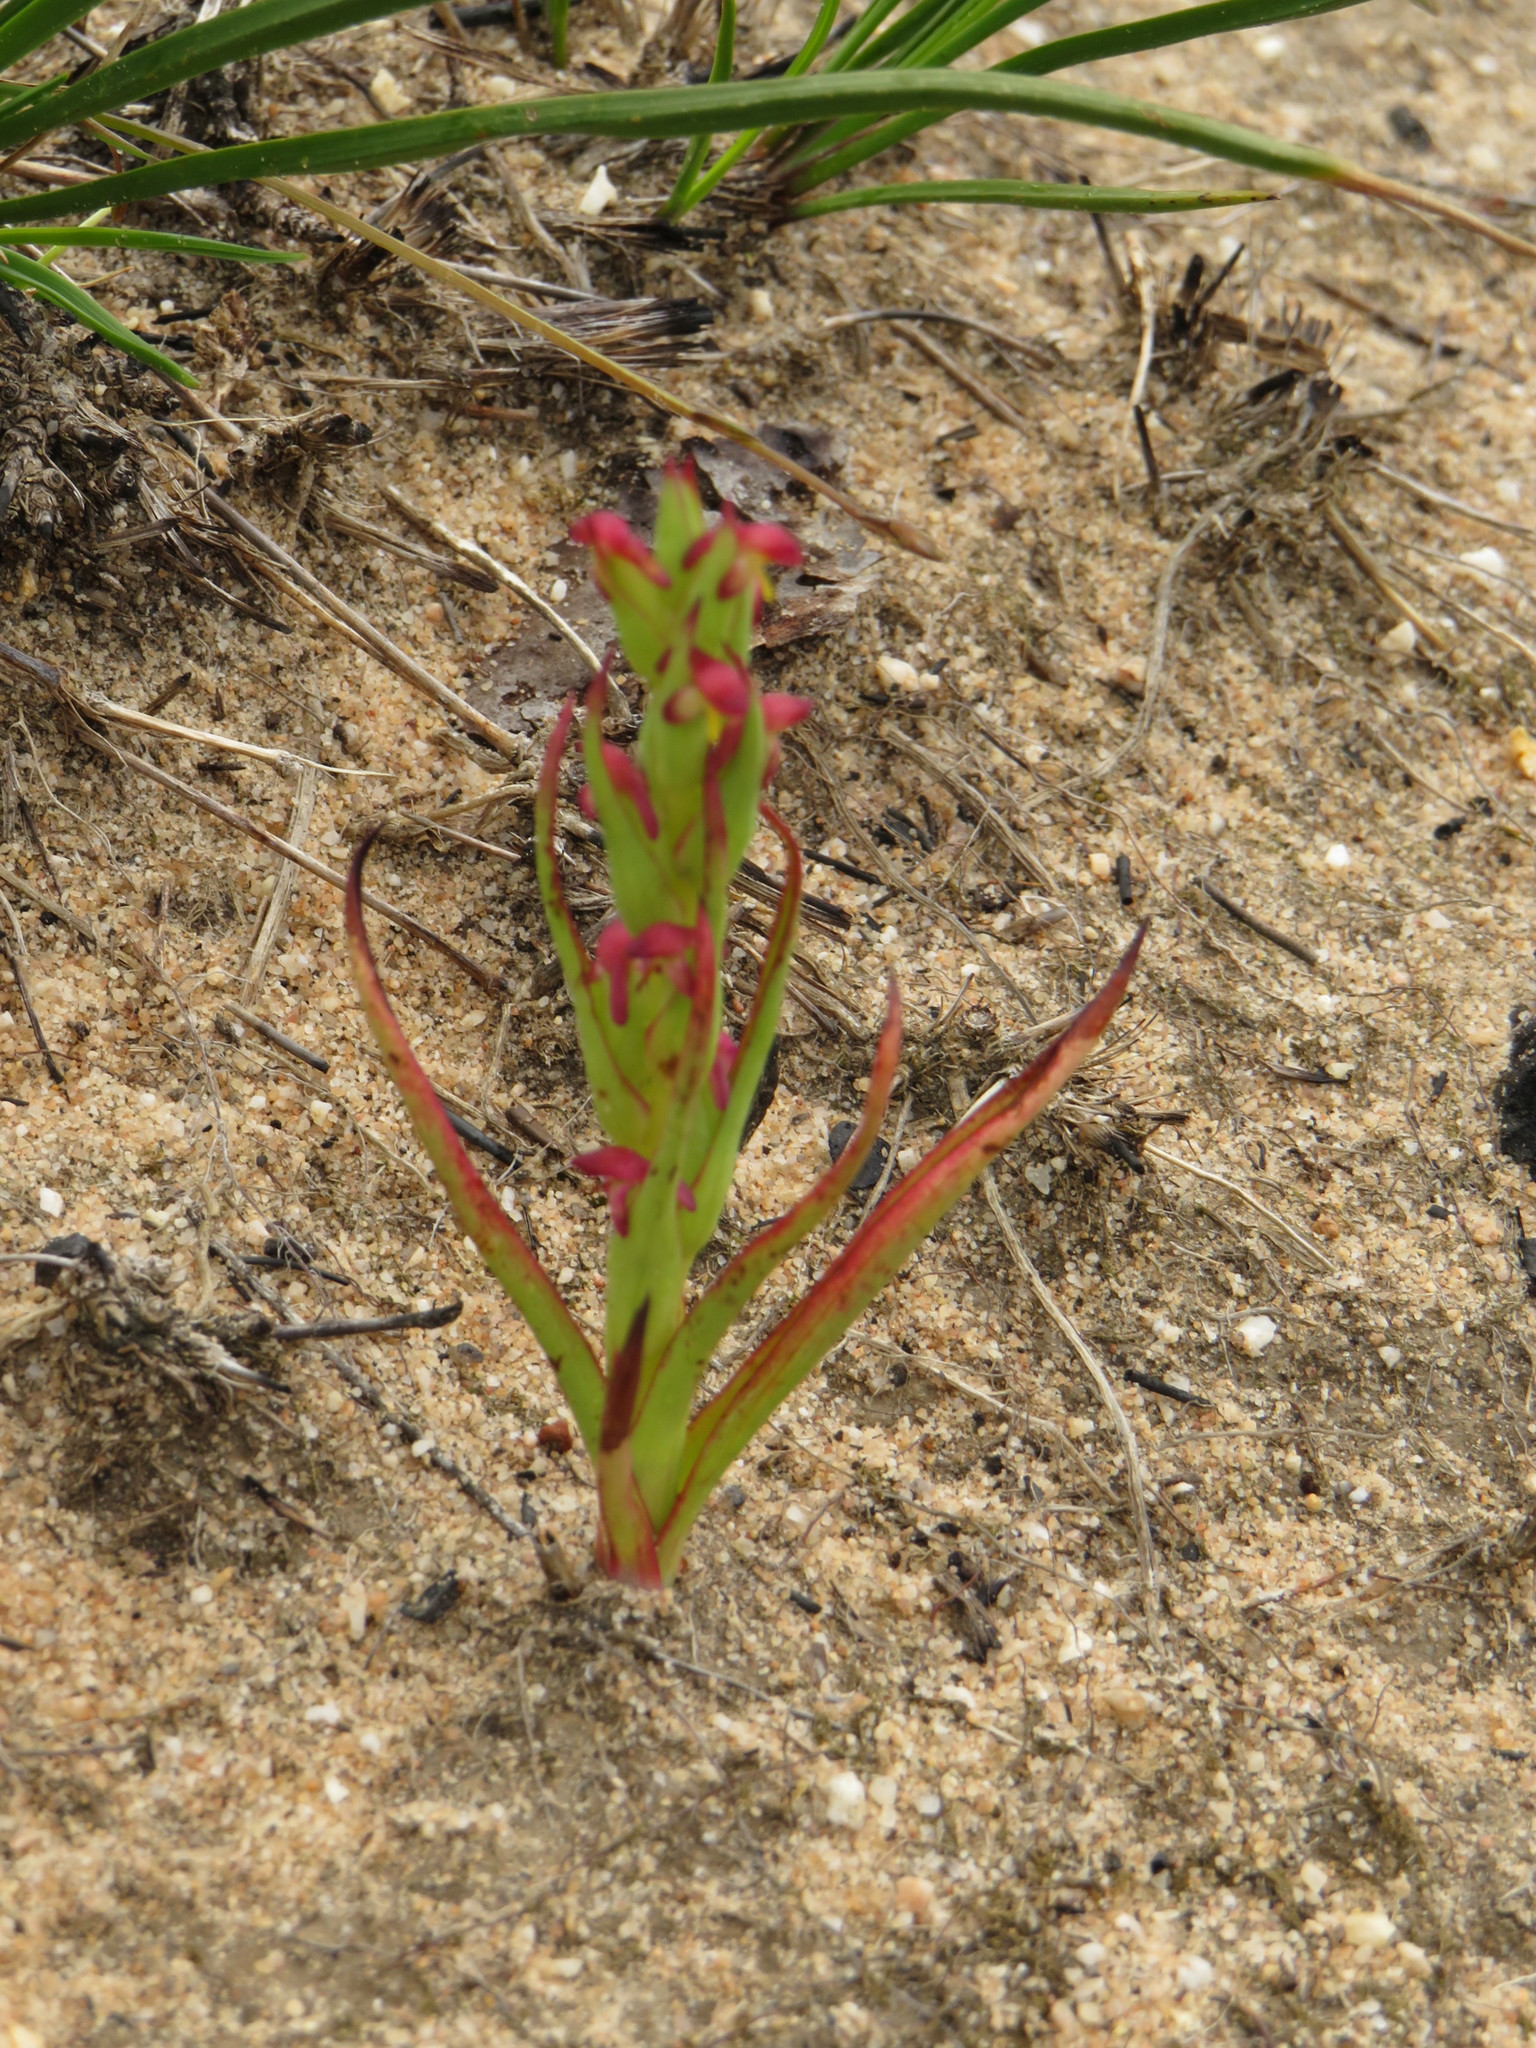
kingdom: Plantae
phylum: Tracheophyta
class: Liliopsida
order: Asparagales
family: Orchidaceae
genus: Disa
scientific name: Disa bracteata
